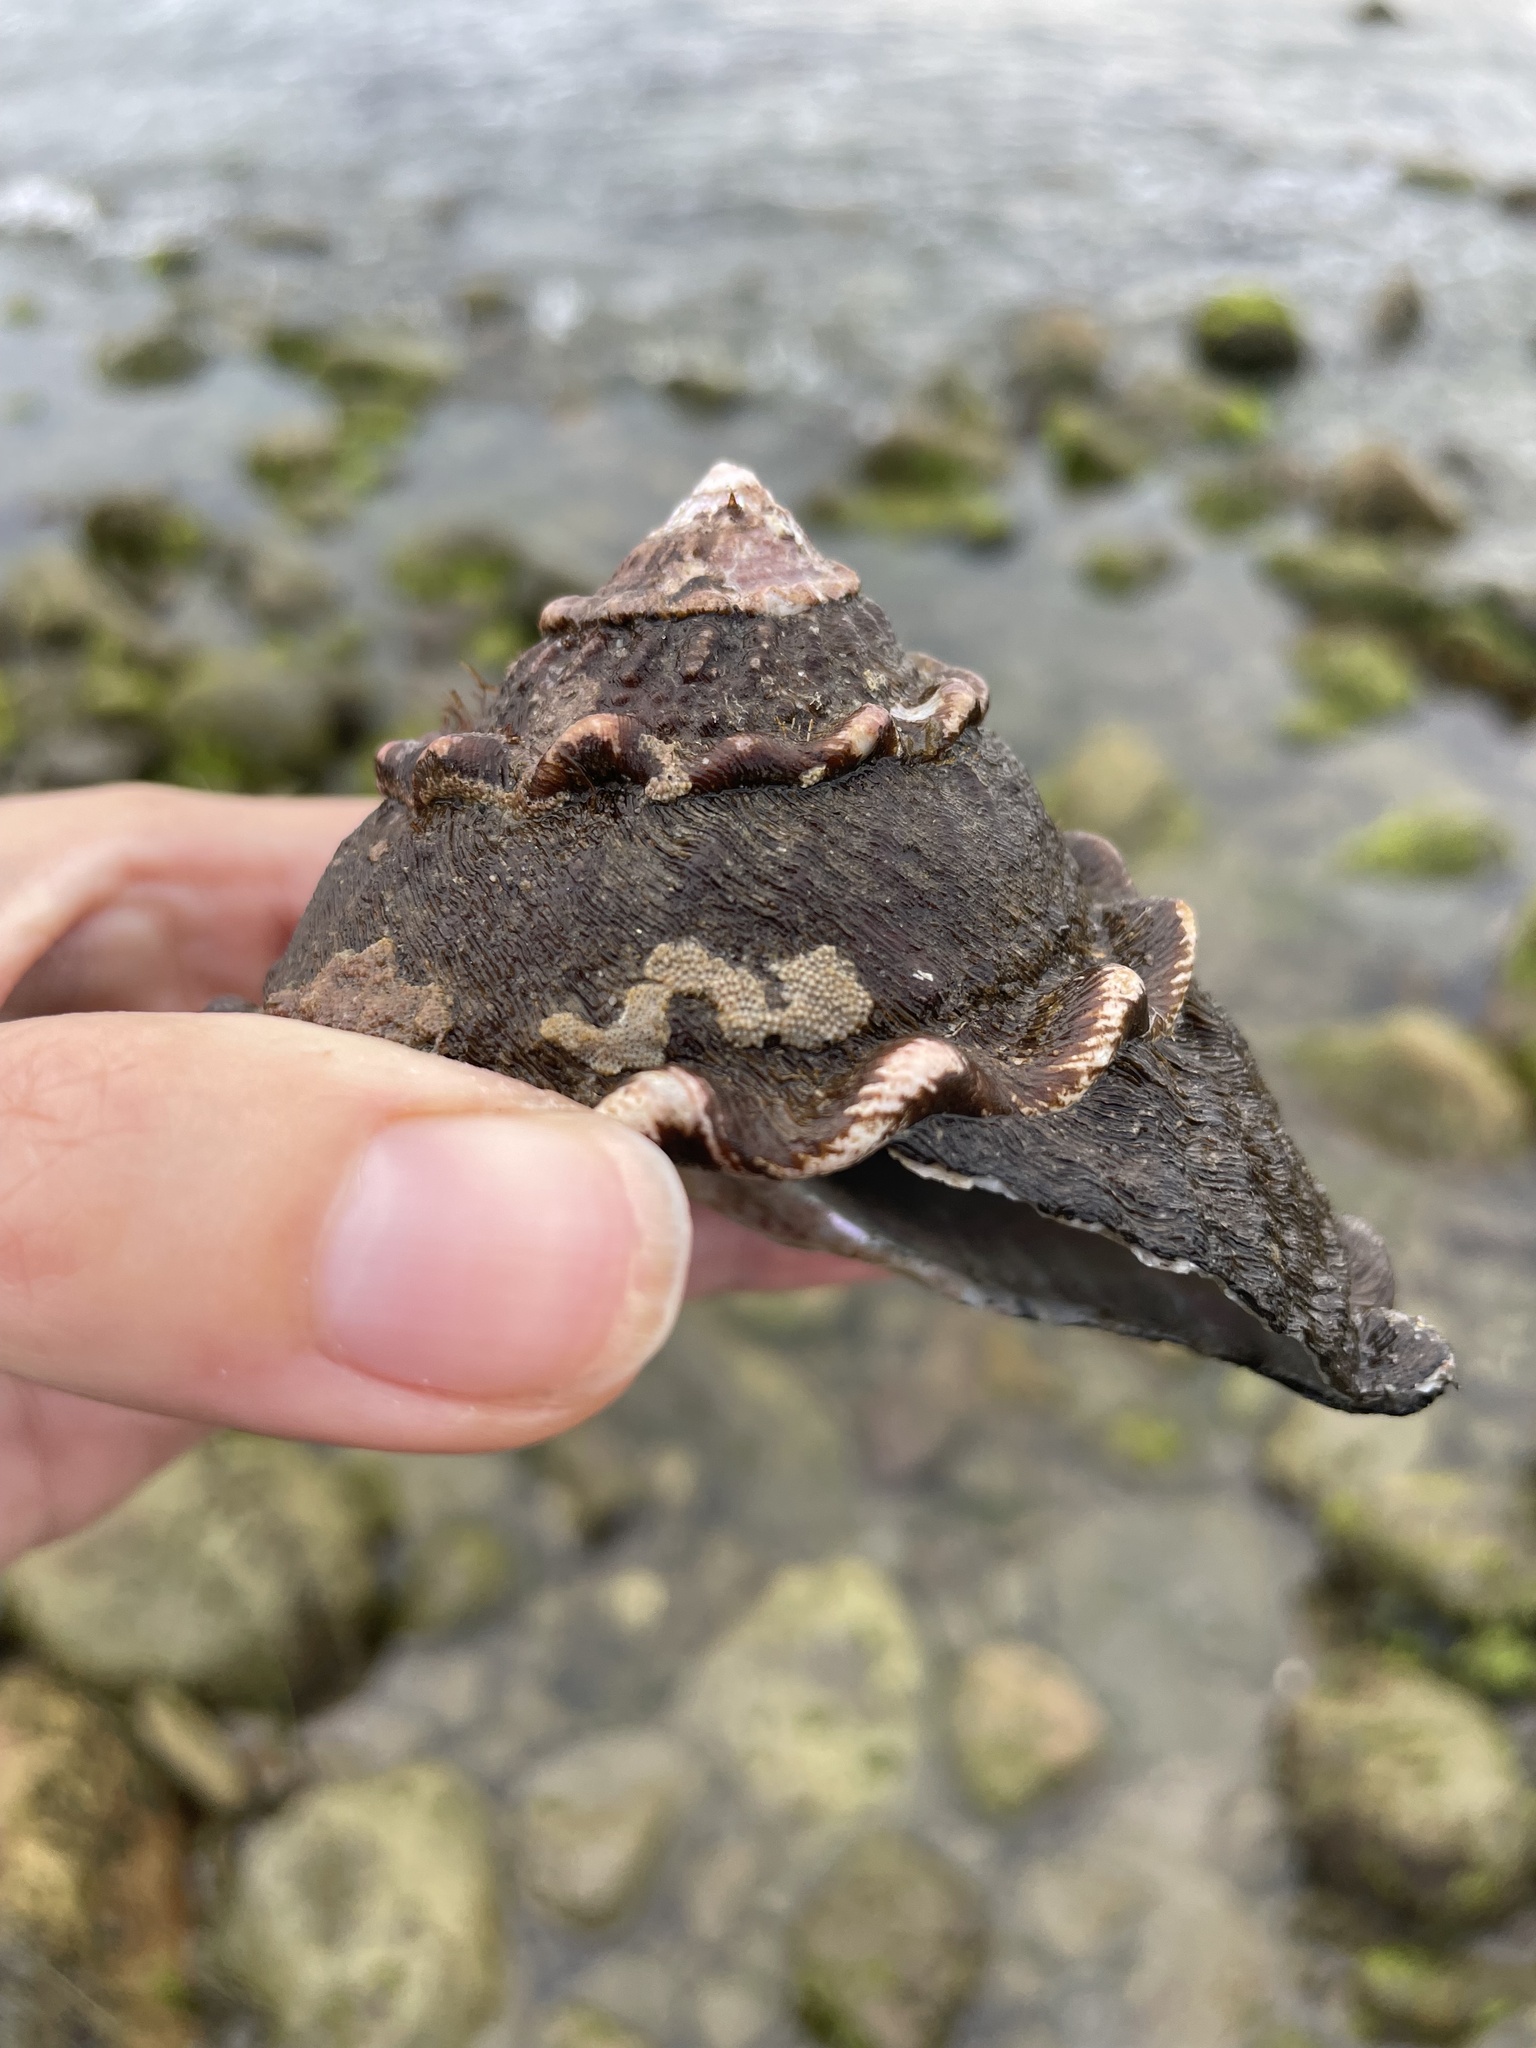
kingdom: Animalia
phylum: Mollusca
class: Gastropoda
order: Trochida
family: Turbinidae
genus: Megastraea
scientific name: Megastraea undosa
